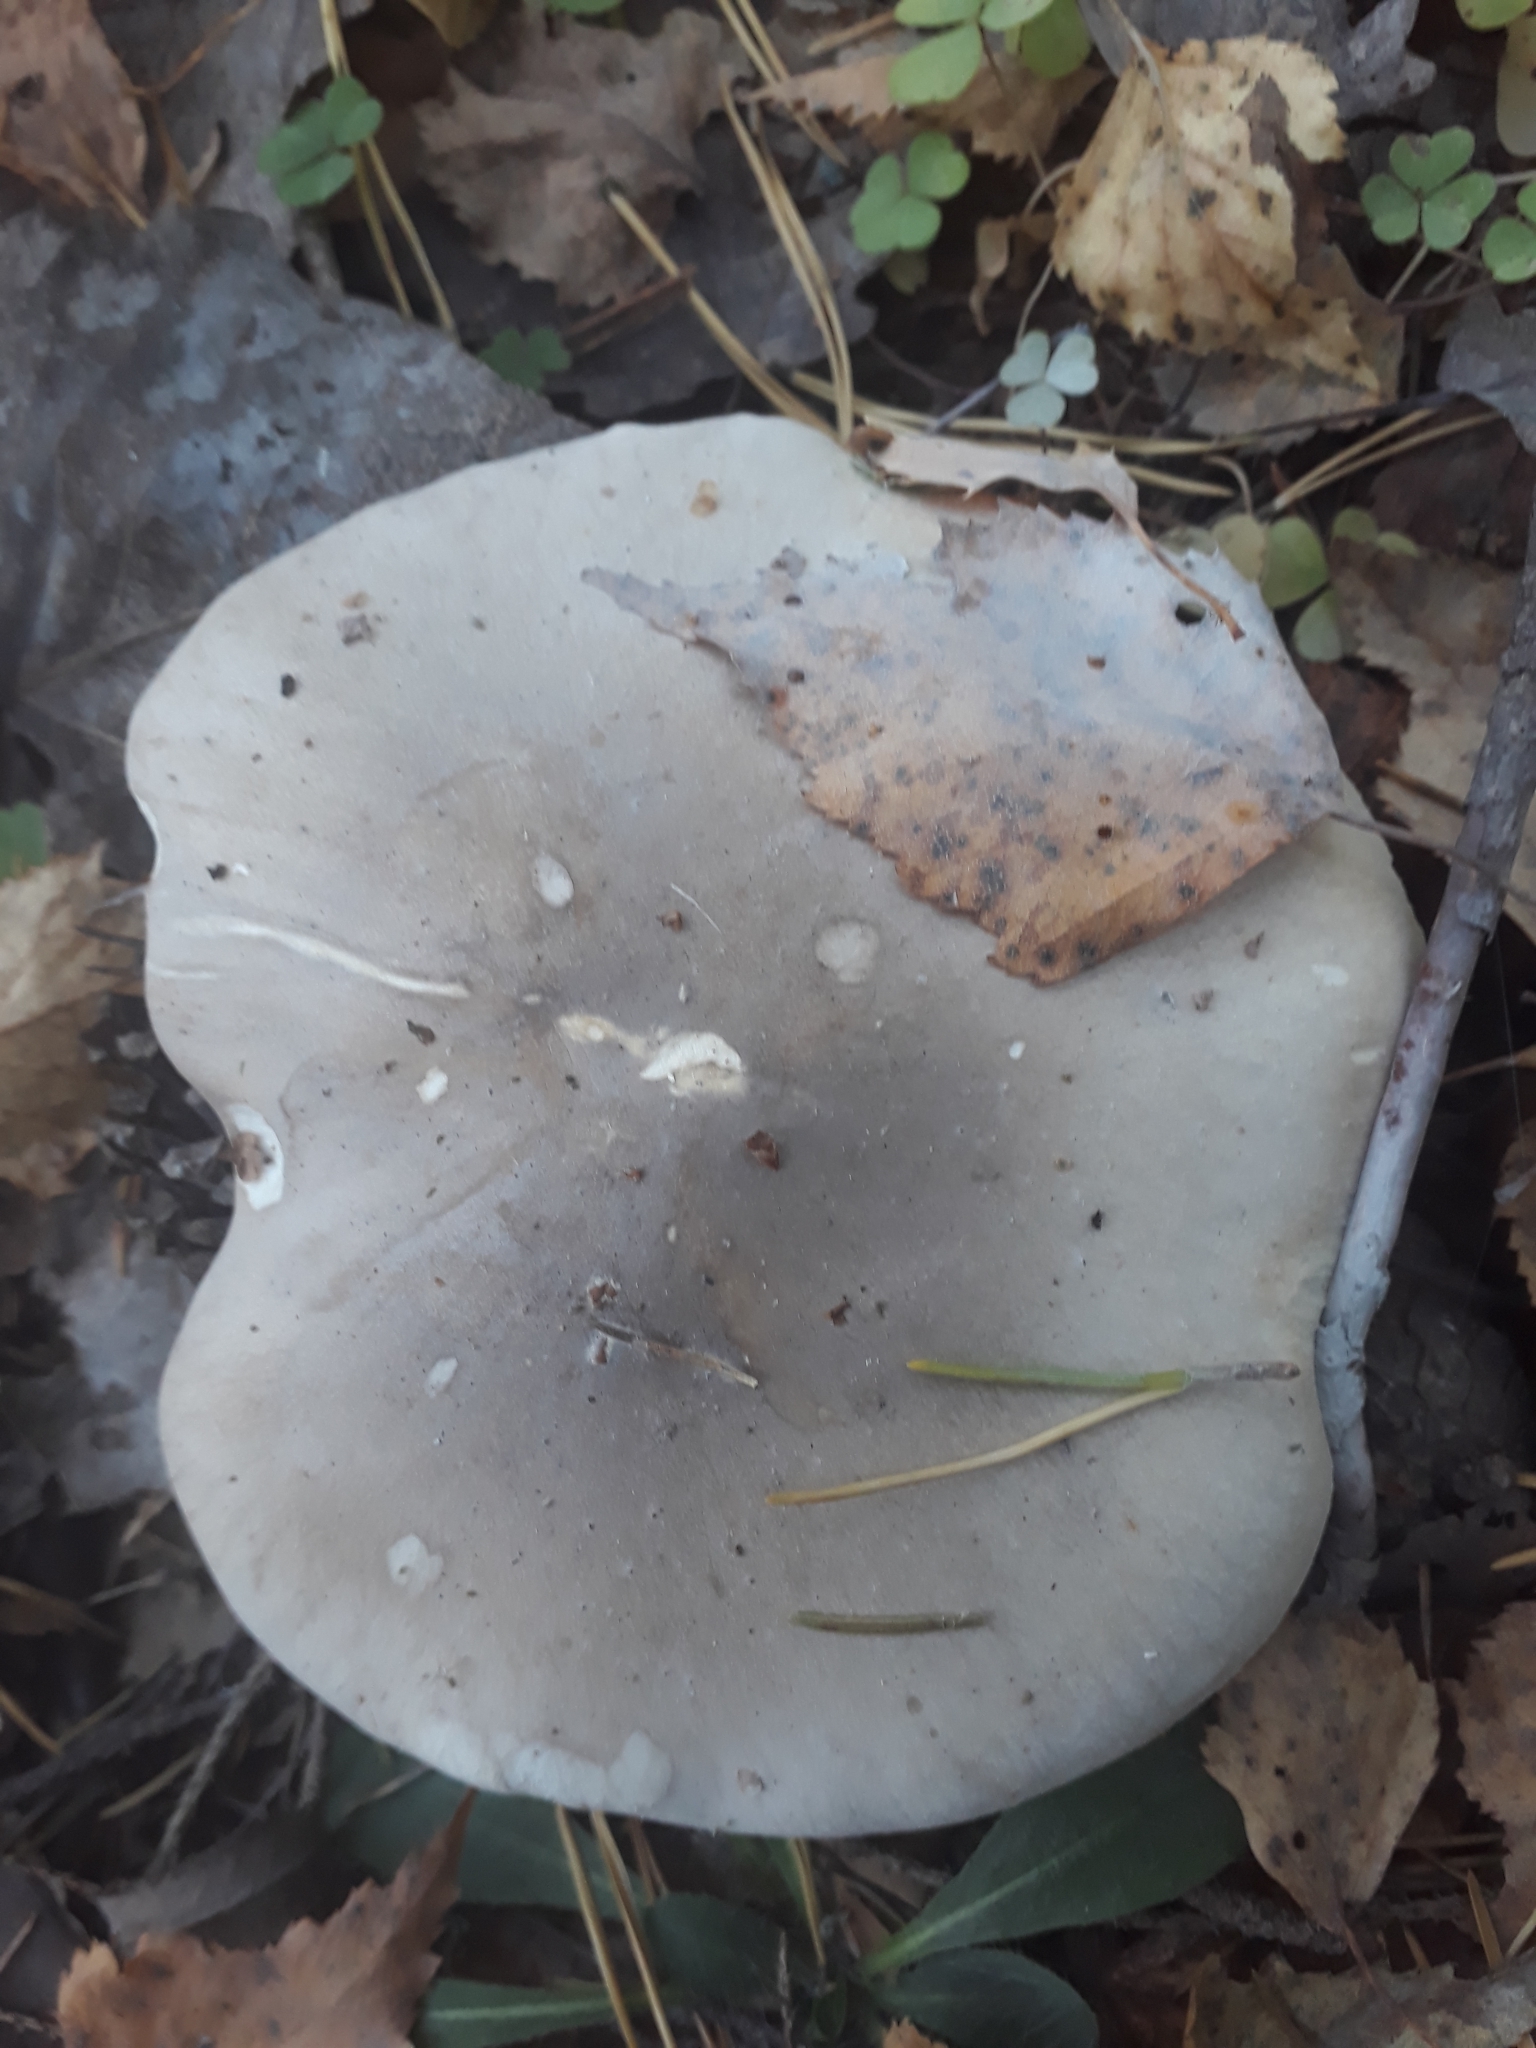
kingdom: Fungi
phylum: Basidiomycota
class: Agaricomycetes
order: Agaricales
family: Tricholomataceae
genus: Clitocybe
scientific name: Clitocybe nebularis
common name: Clouded agaric
